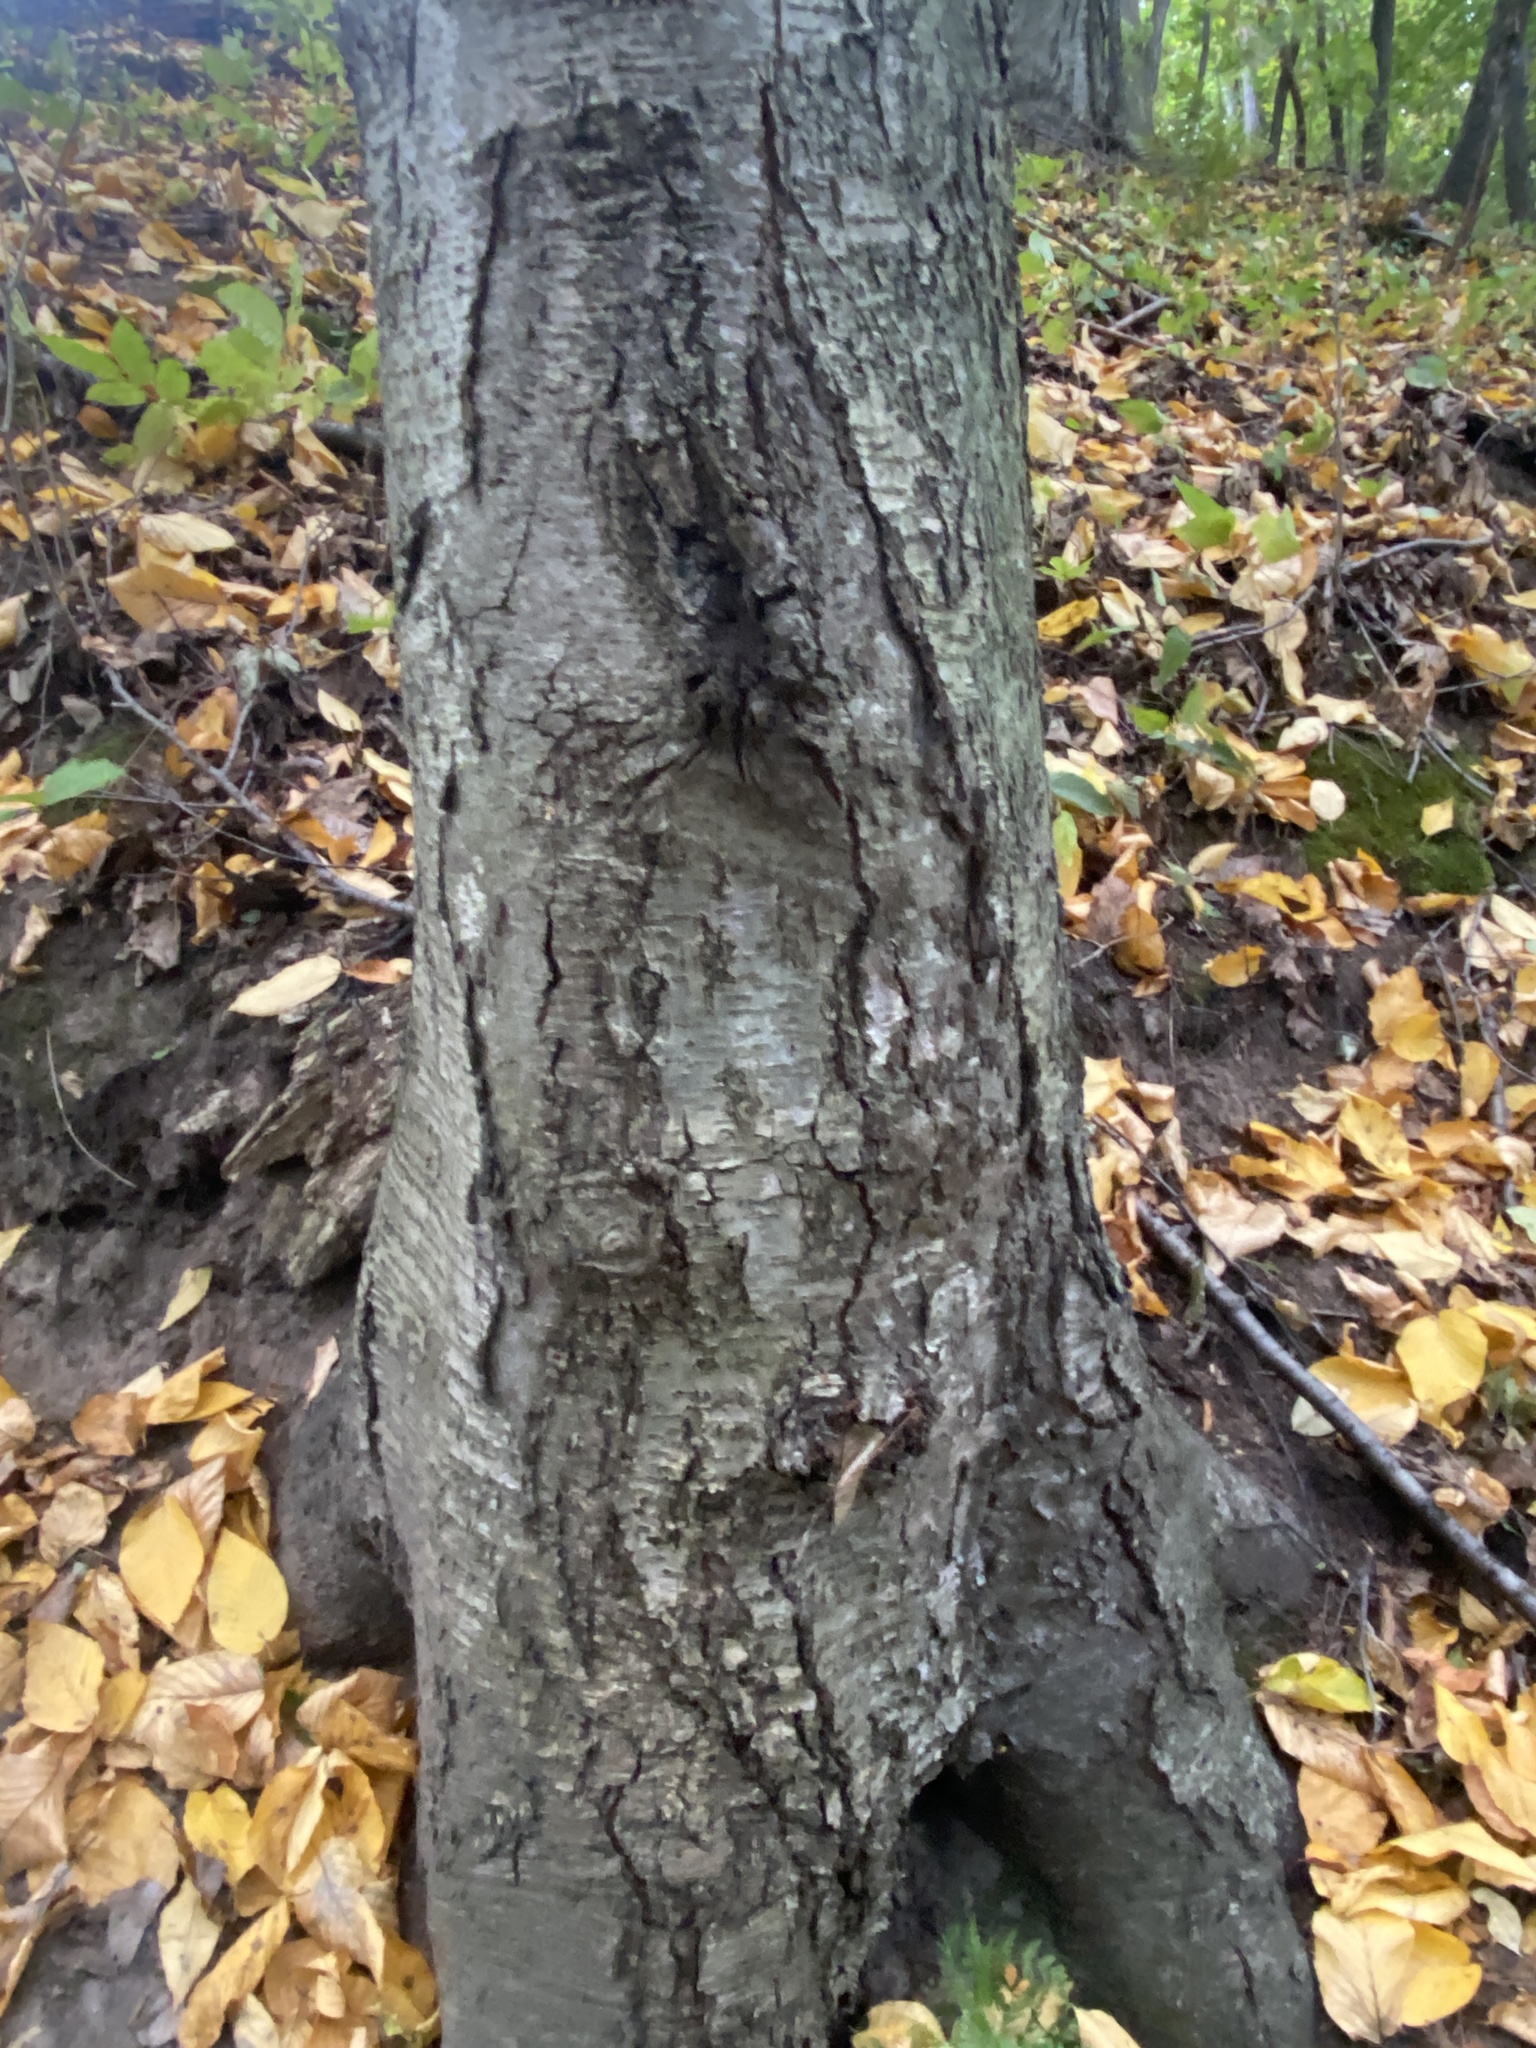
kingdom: Plantae
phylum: Tracheophyta
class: Magnoliopsida
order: Fagales
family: Betulaceae
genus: Betula
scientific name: Betula lenta
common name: Black birch
